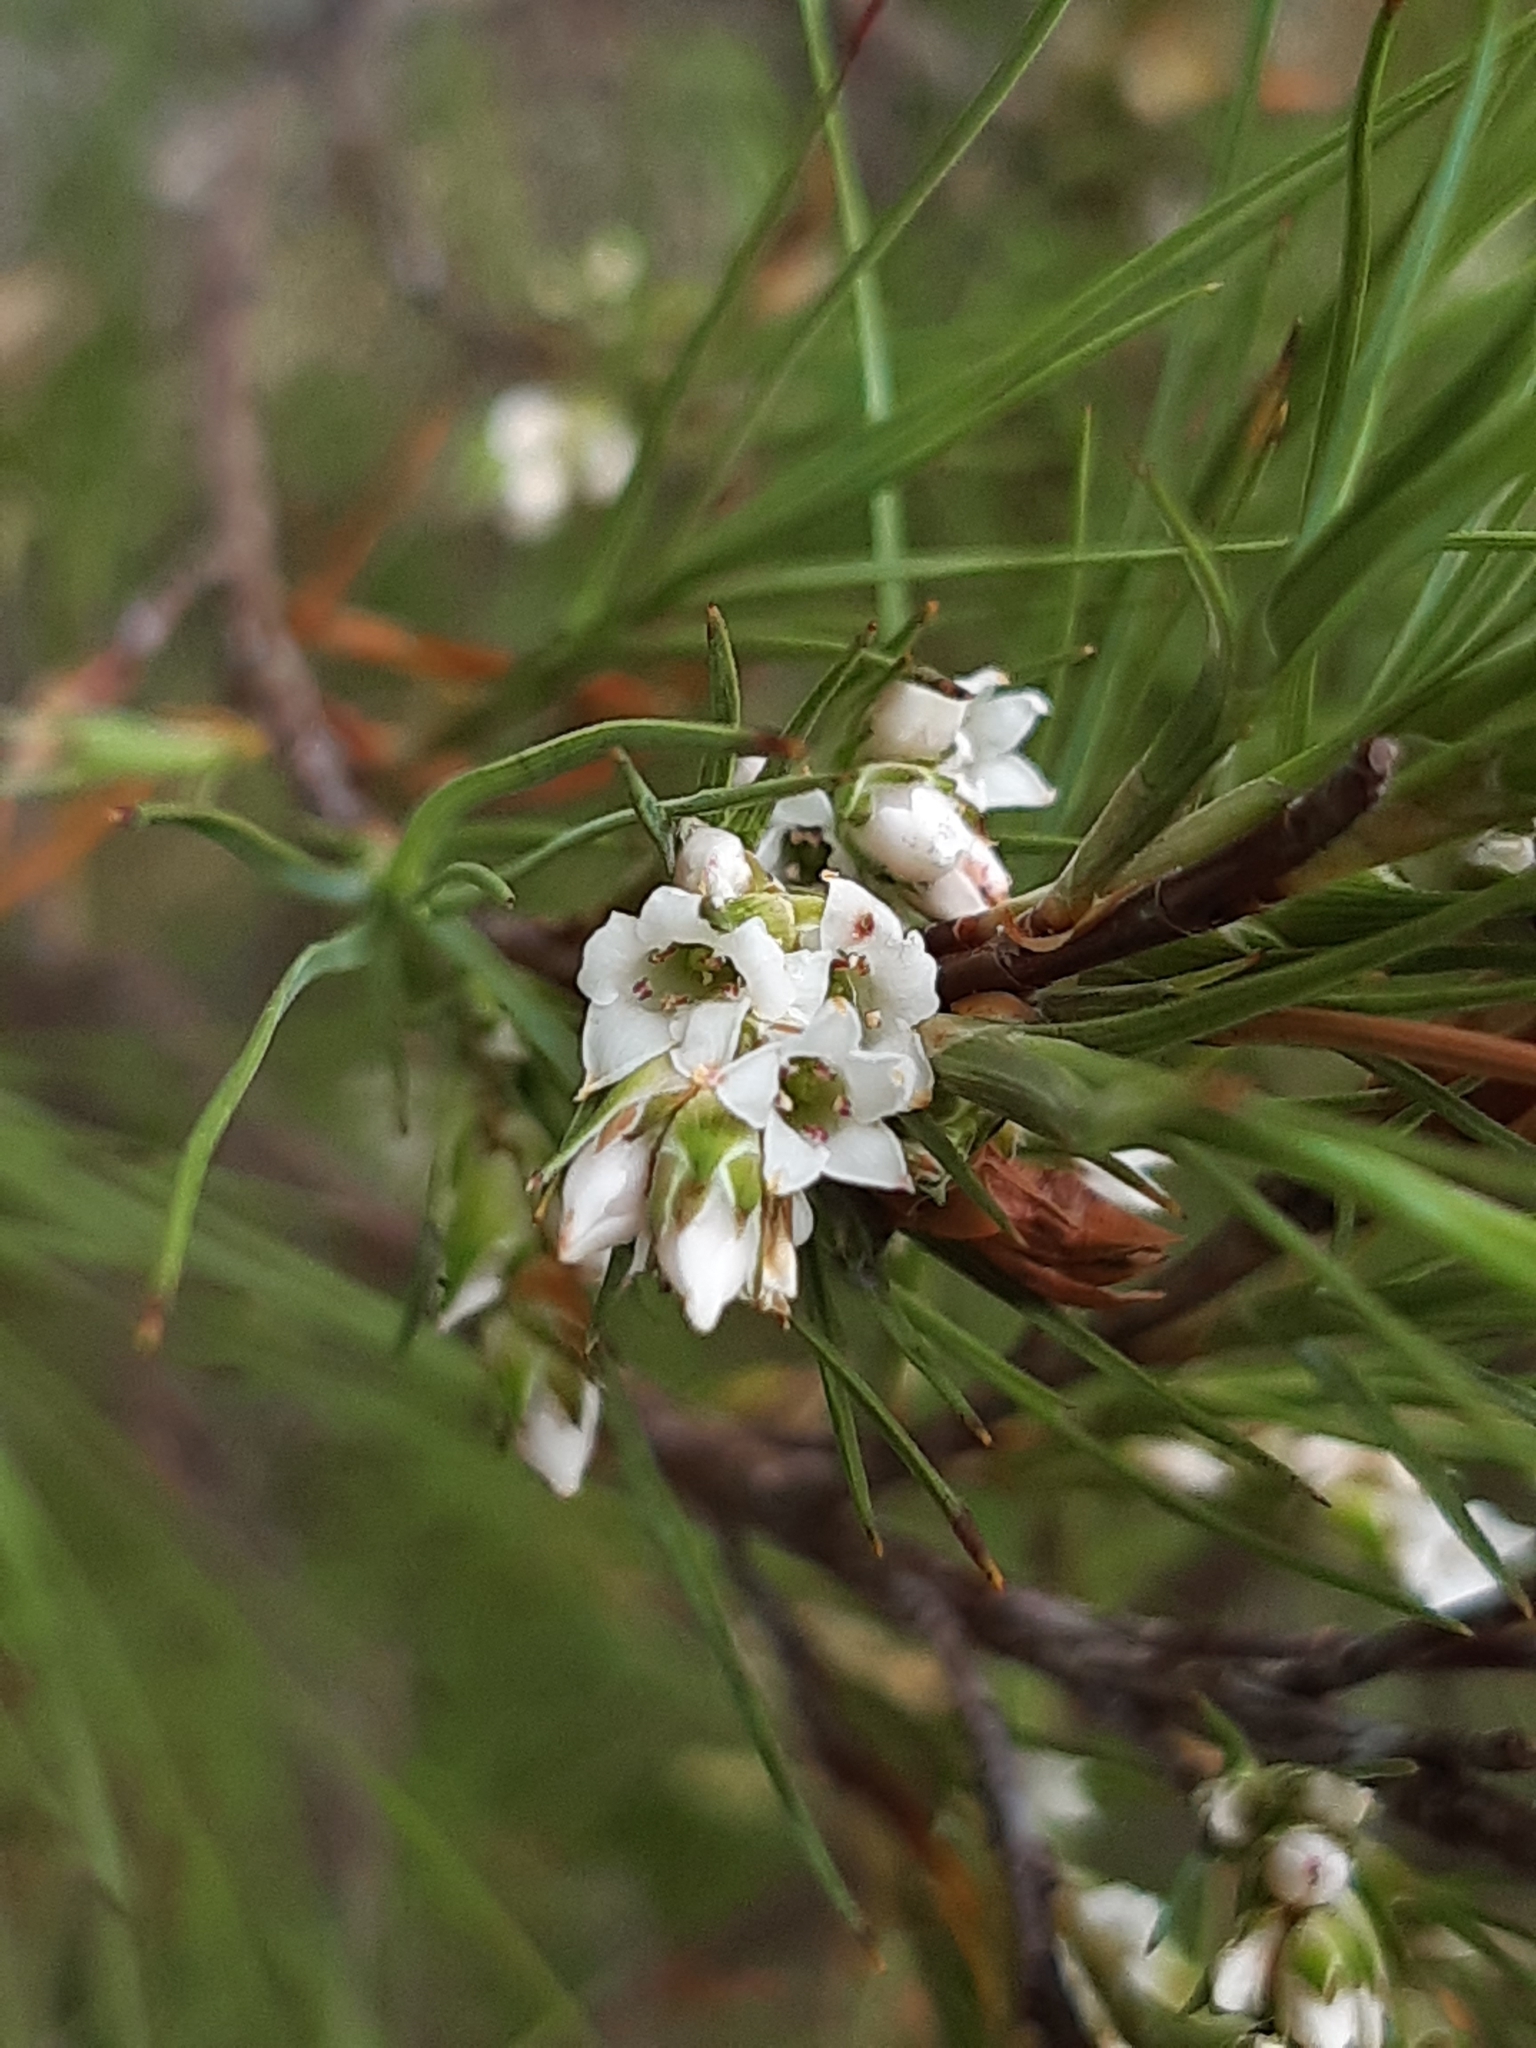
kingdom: Plantae
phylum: Tracheophyta
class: Magnoliopsida
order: Ericales
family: Ericaceae
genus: Dracophyllum
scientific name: Dracophyllum filifolium
